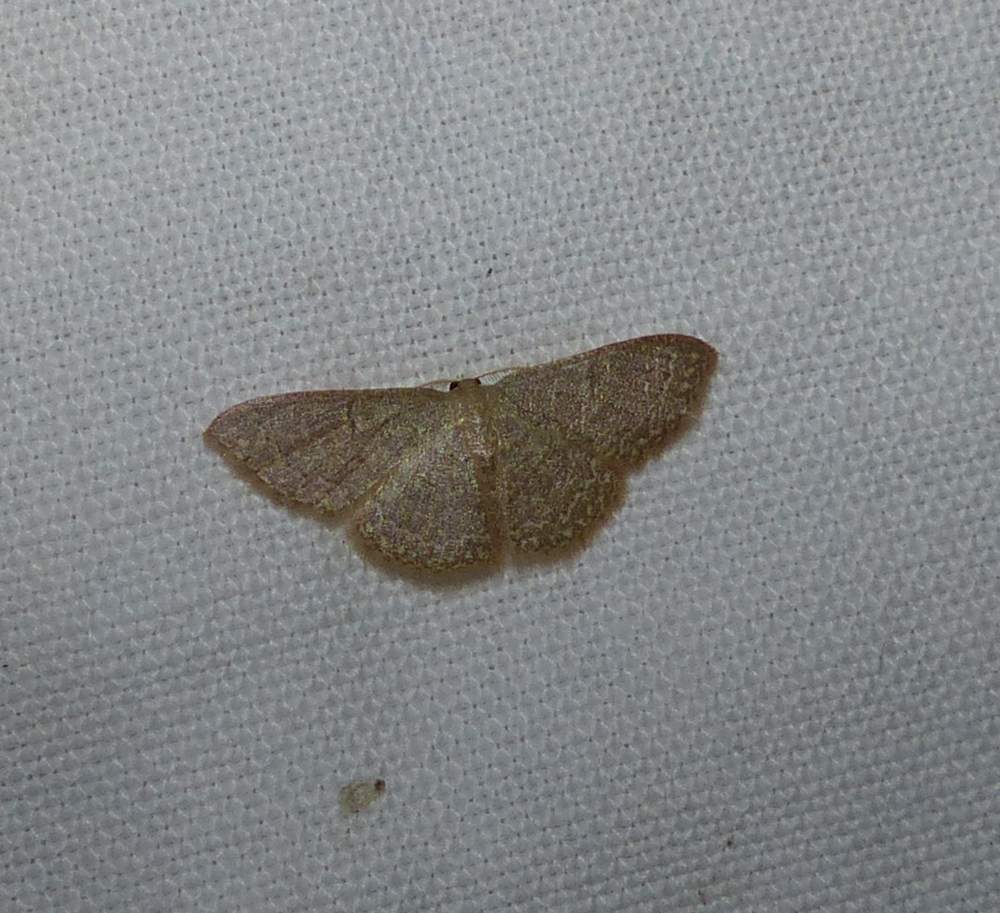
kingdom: Animalia
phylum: Arthropoda
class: Insecta
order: Lepidoptera
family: Geometridae
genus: Pleuroprucha
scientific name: Pleuroprucha insulsaria
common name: Common tan wave
